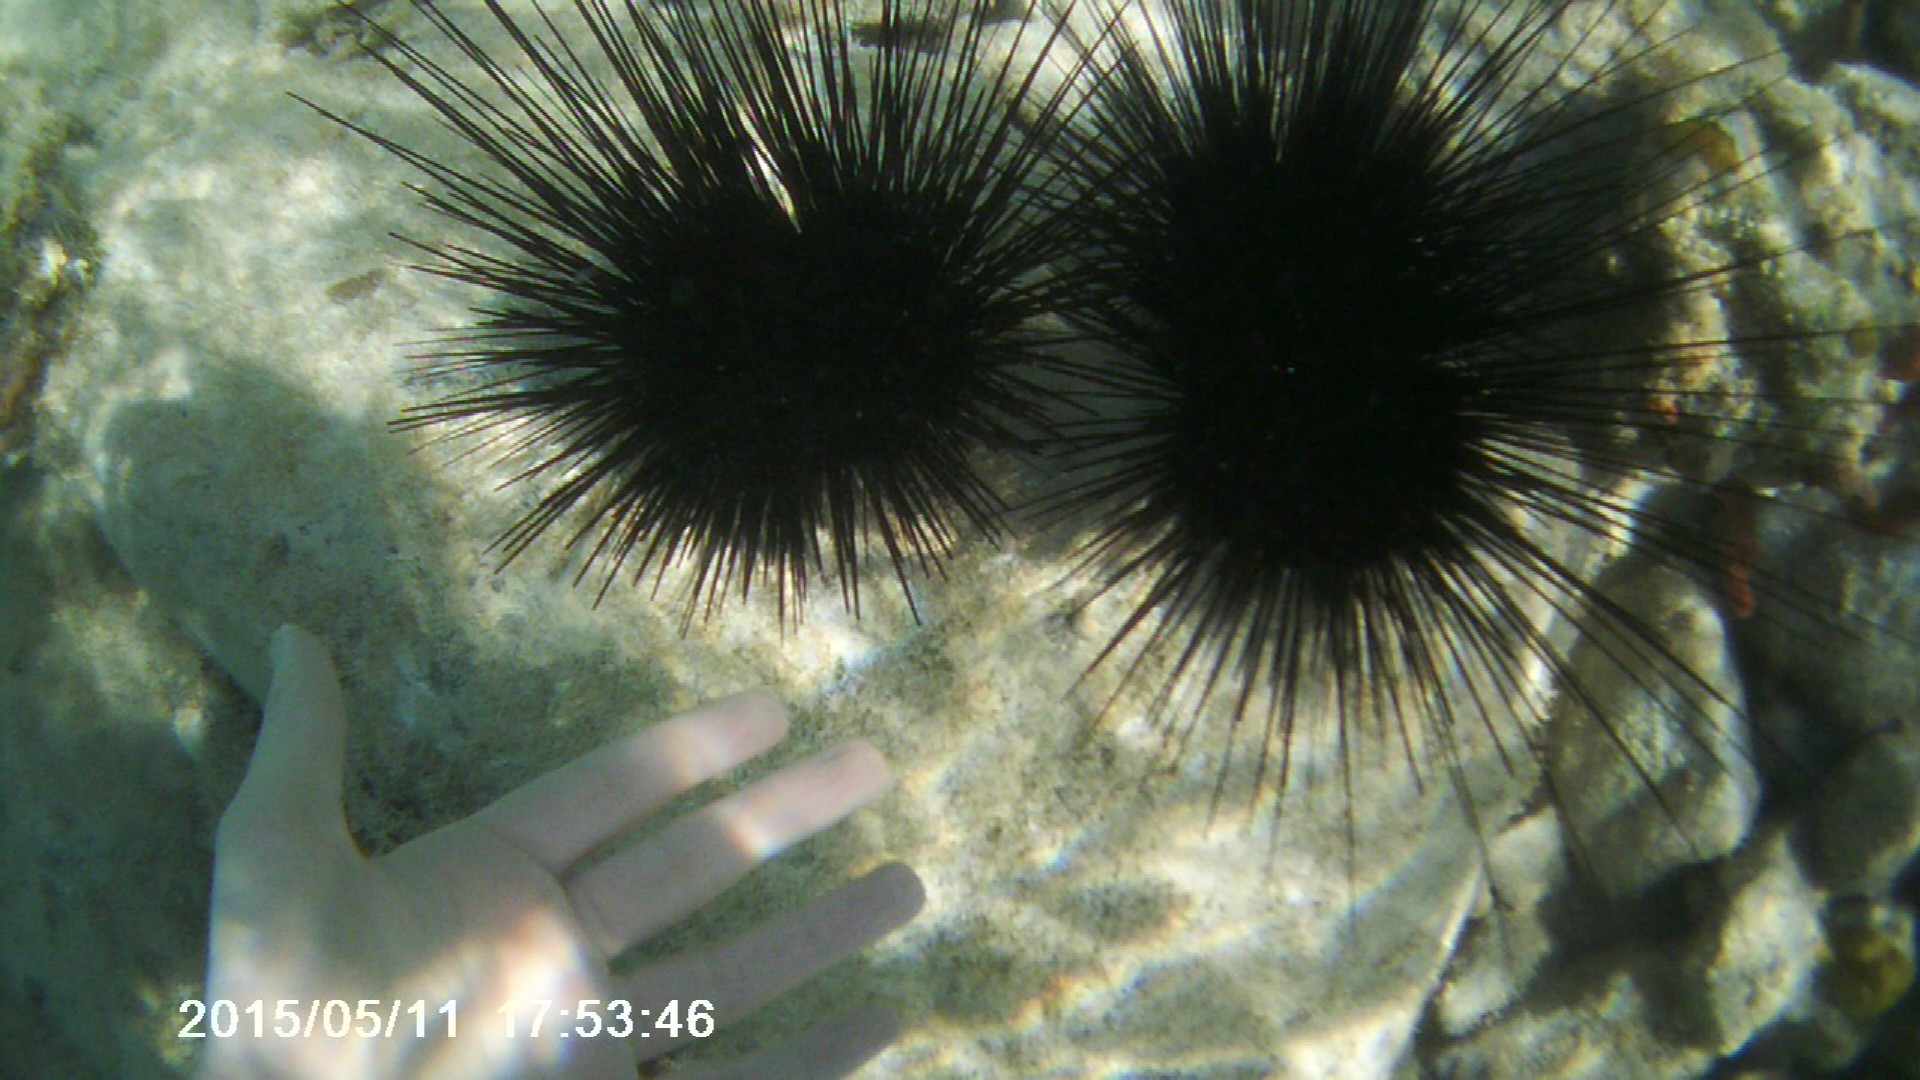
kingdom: Animalia
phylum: Echinodermata
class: Echinoidea
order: Diadematoida
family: Diadematidae
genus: Diadema
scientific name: Diadema antillarum
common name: Spiny urchin
